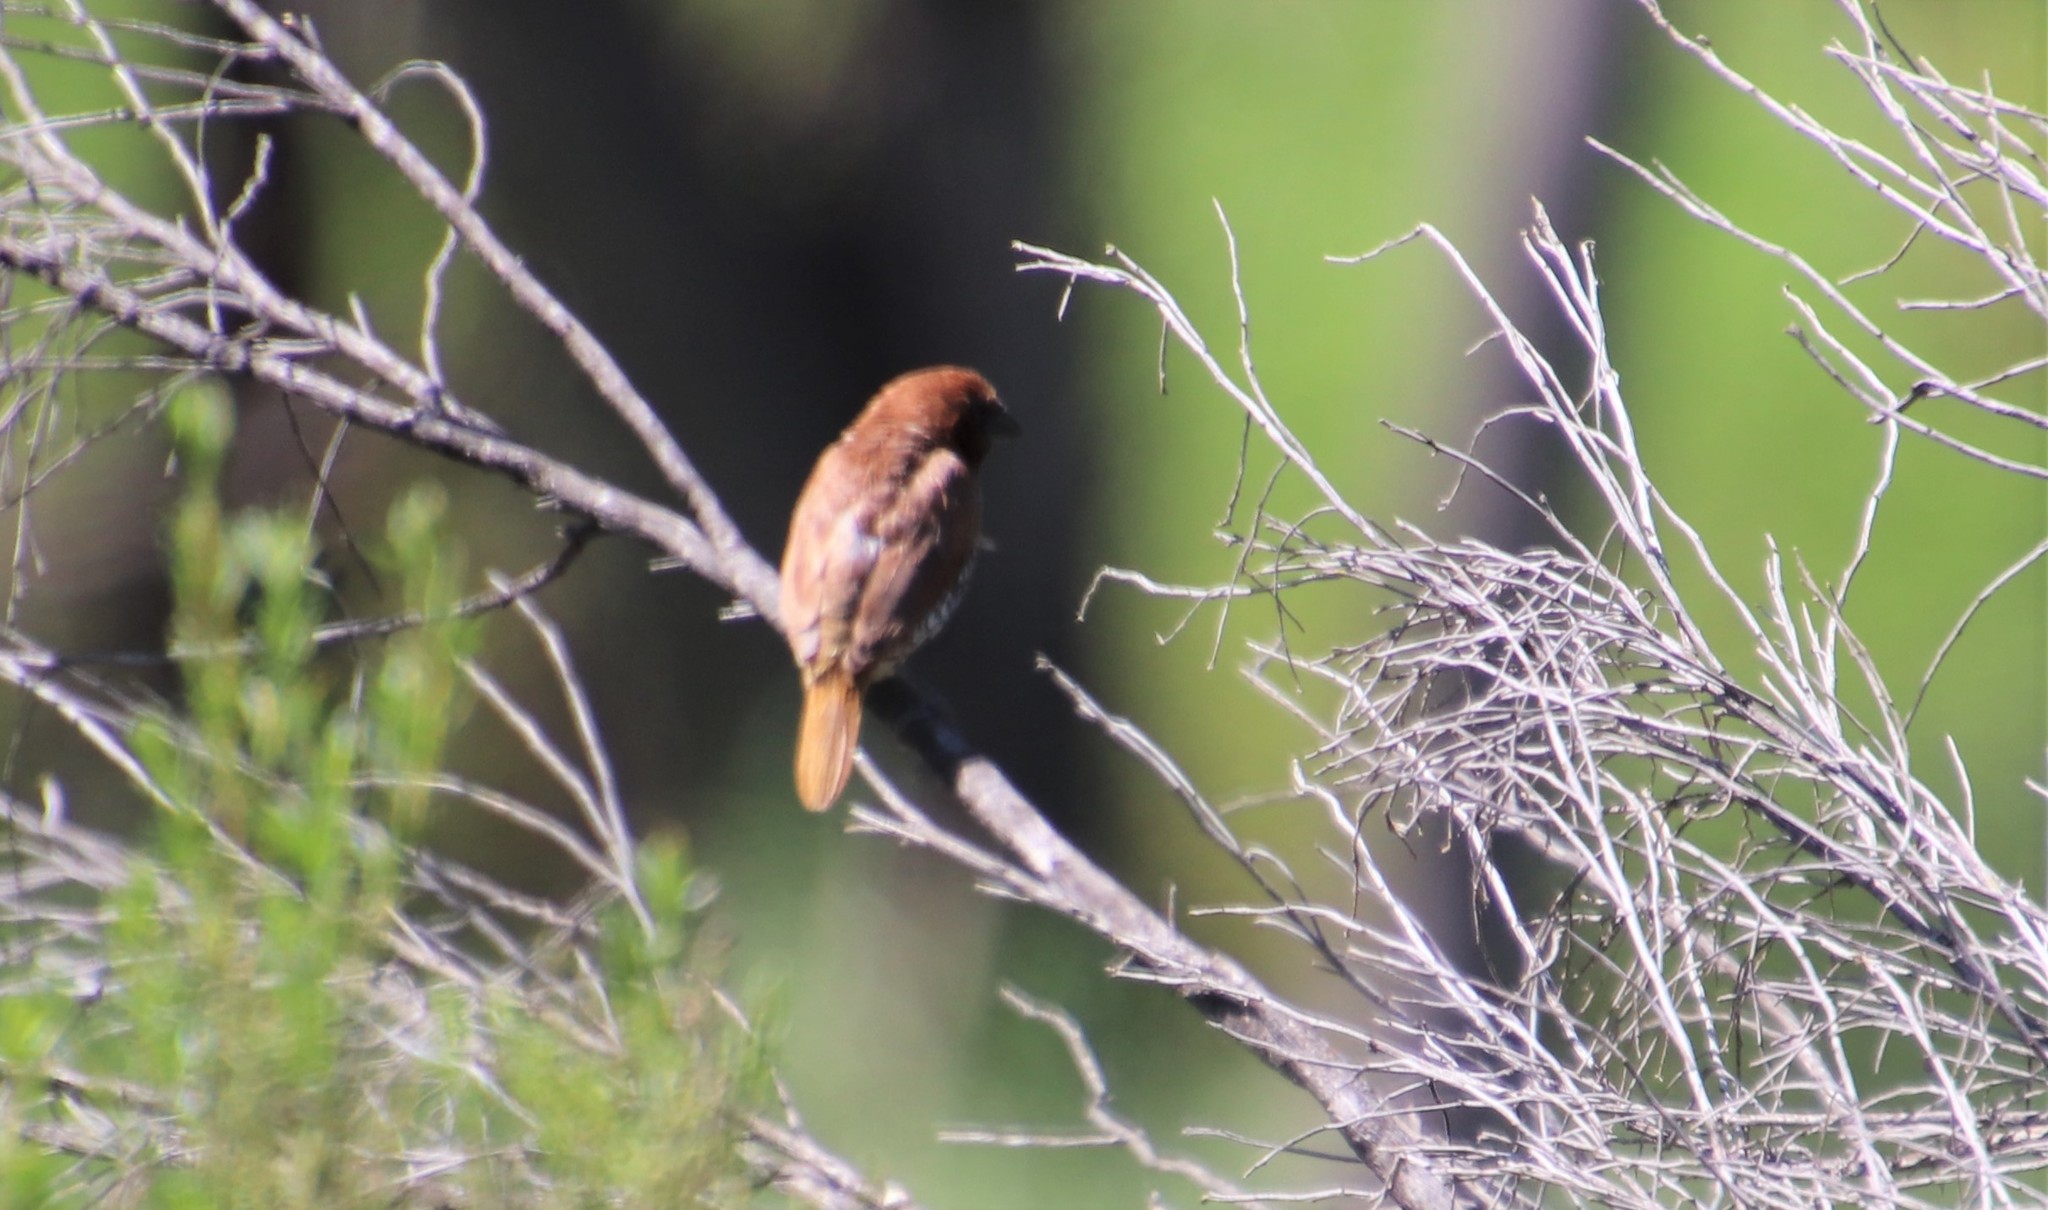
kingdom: Animalia
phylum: Chordata
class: Aves
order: Passeriformes
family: Estrildidae
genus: Lonchura
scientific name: Lonchura punctulata
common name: Scaly-breasted munia
